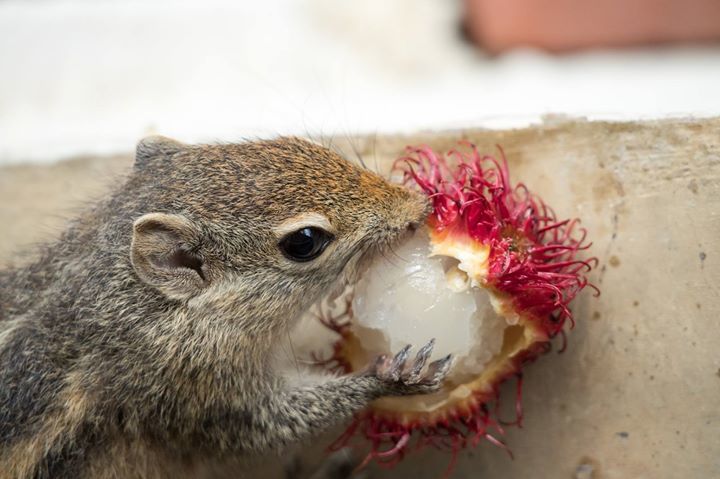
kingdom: Animalia
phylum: Chordata
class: Mammalia
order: Rodentia
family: Sciuridae
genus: Funambulus
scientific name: Funambulus palmarum
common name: Indian palm squirrel
